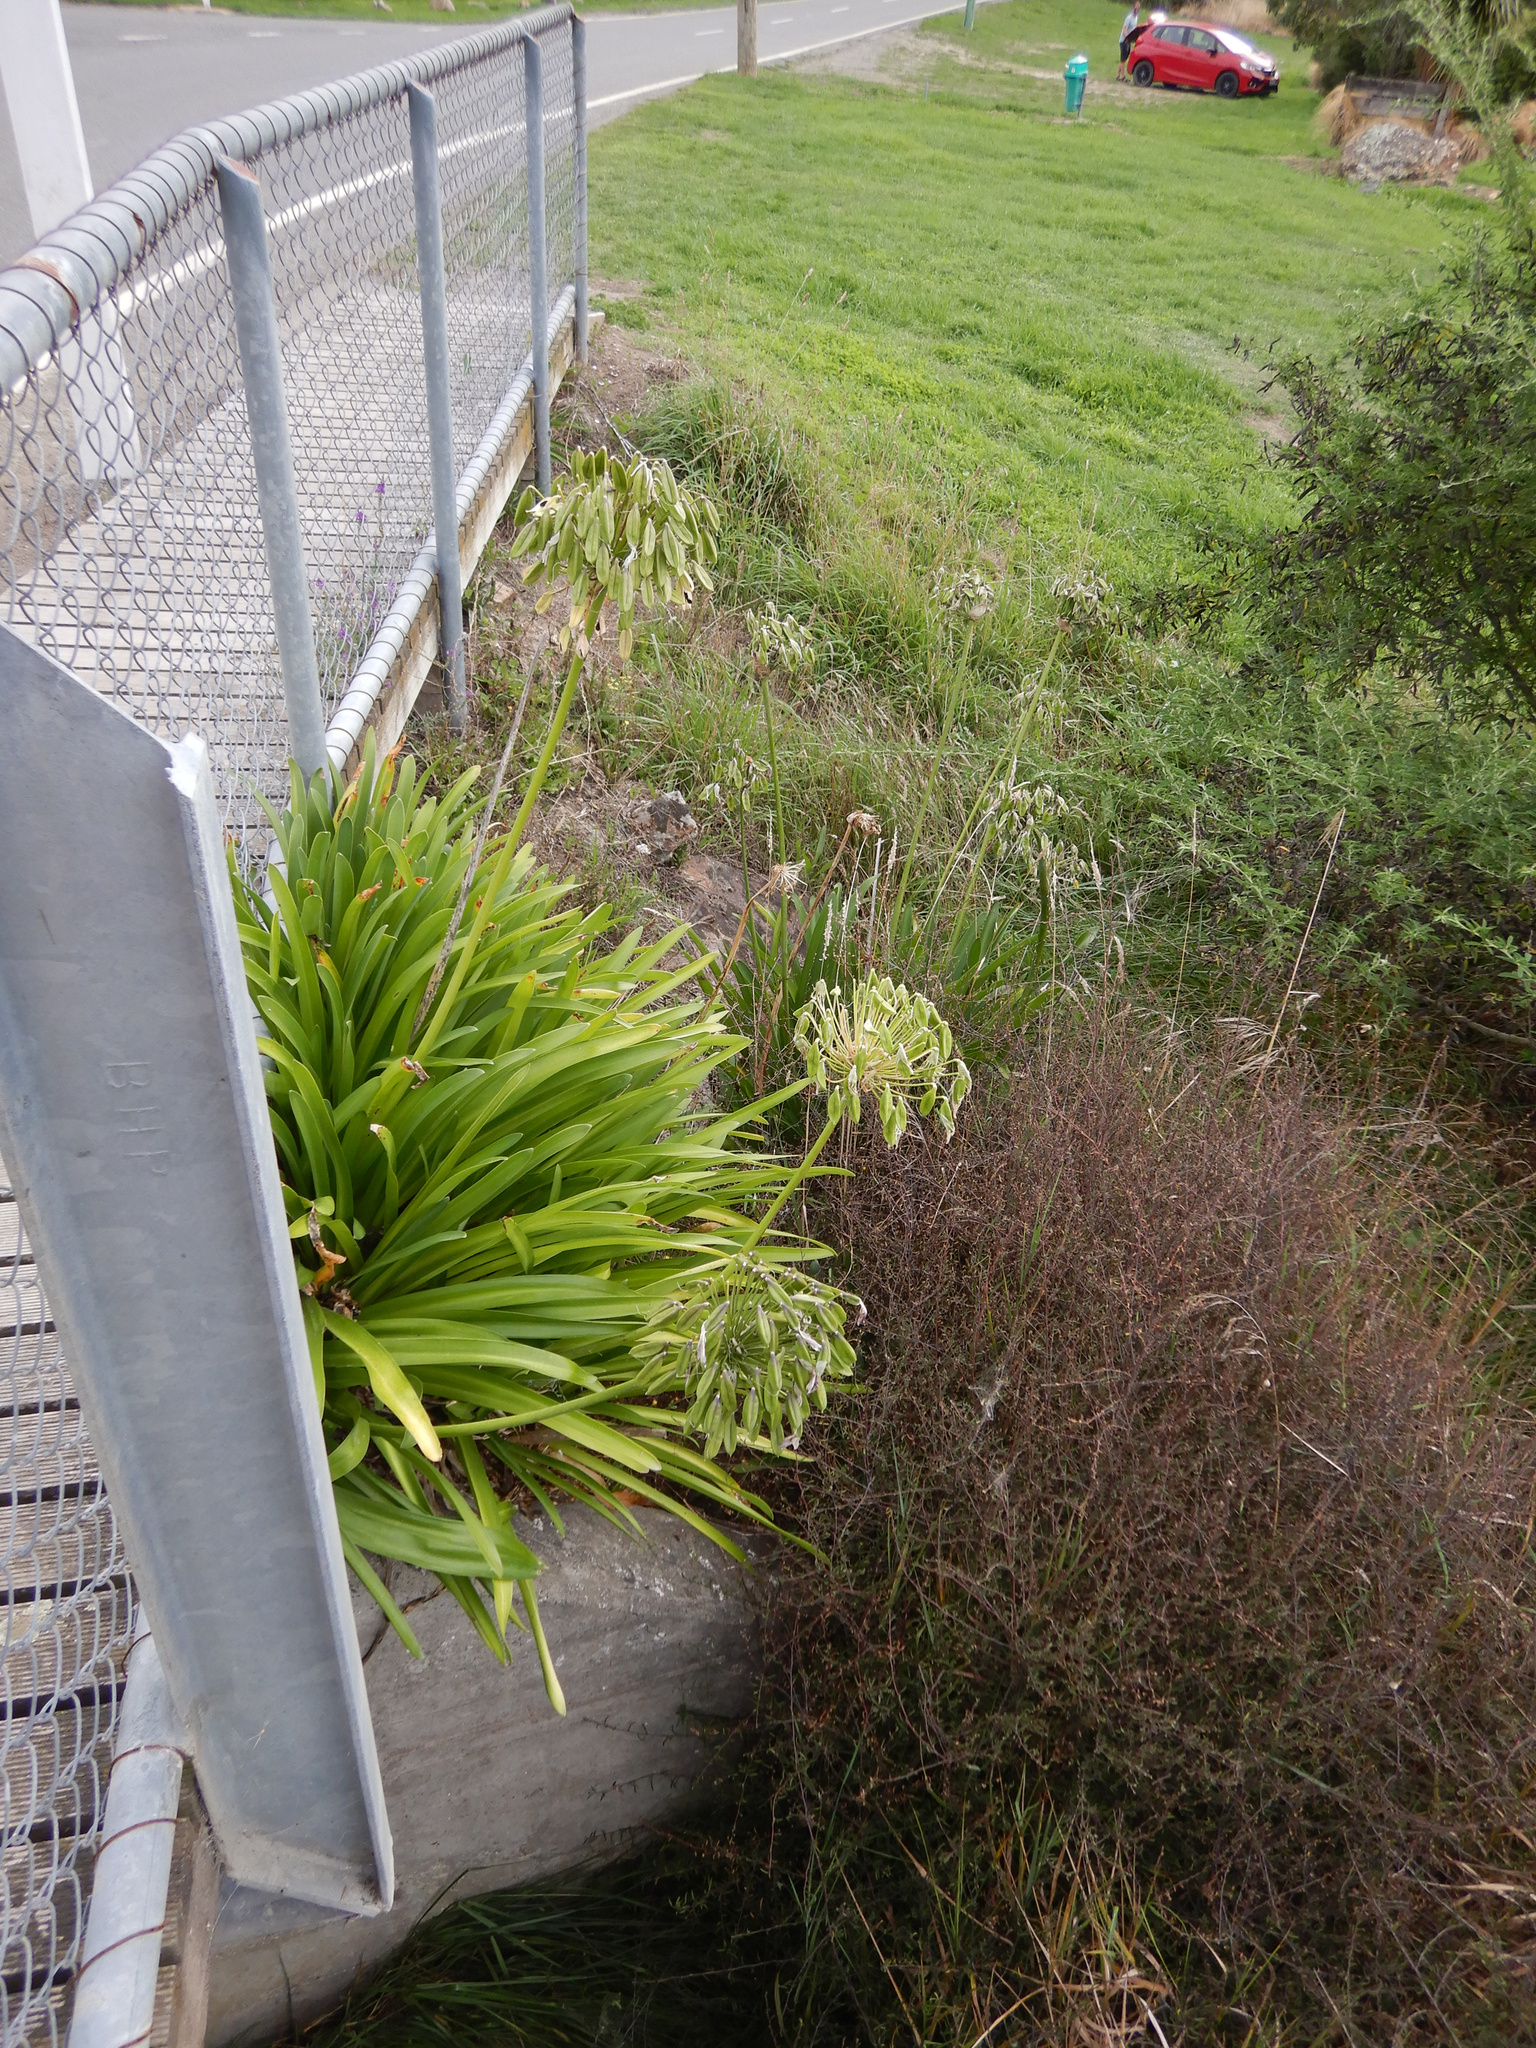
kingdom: Plantae
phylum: Tracheophyta
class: Liliopsida
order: Asparagales
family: Amaryllidaceae
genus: Agapanthus
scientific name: Agapanthus praecox
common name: African-lily
